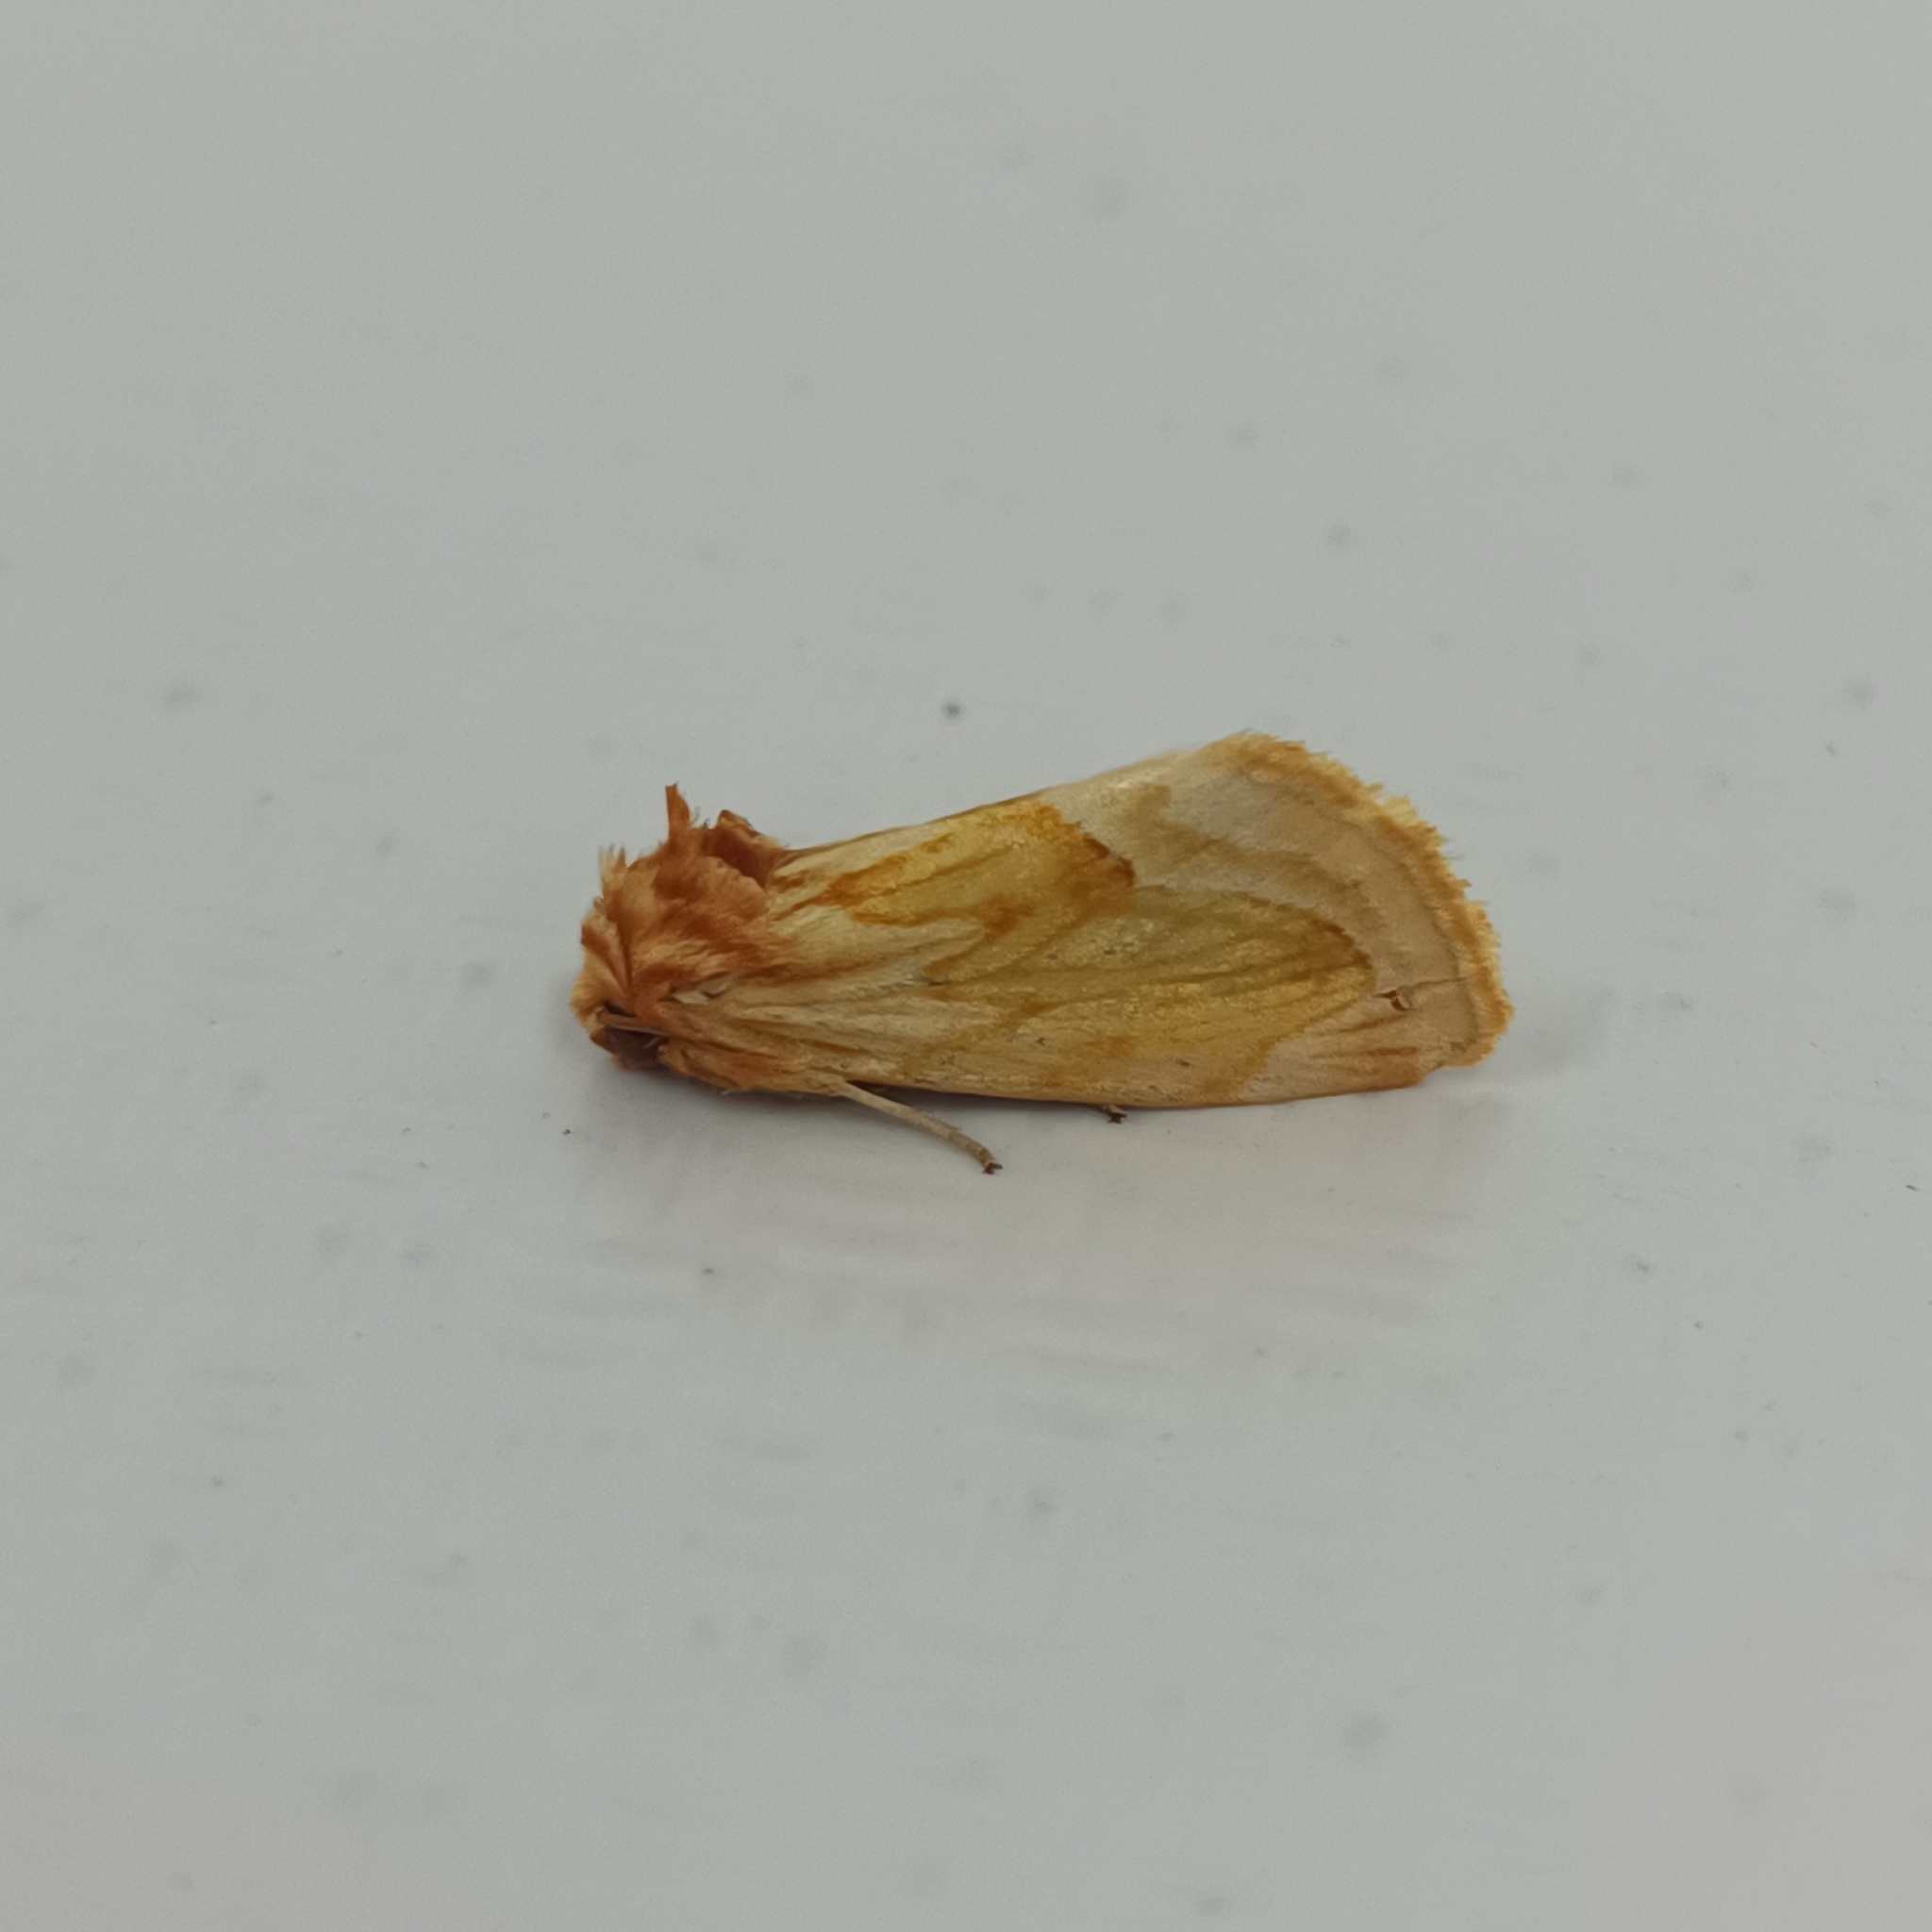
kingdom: Animalia
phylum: Arthropoda
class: Insecta
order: Lepidoptera
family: Noctuidae
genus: Cirrhophanus
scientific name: Cirrhophanus nigrifer
